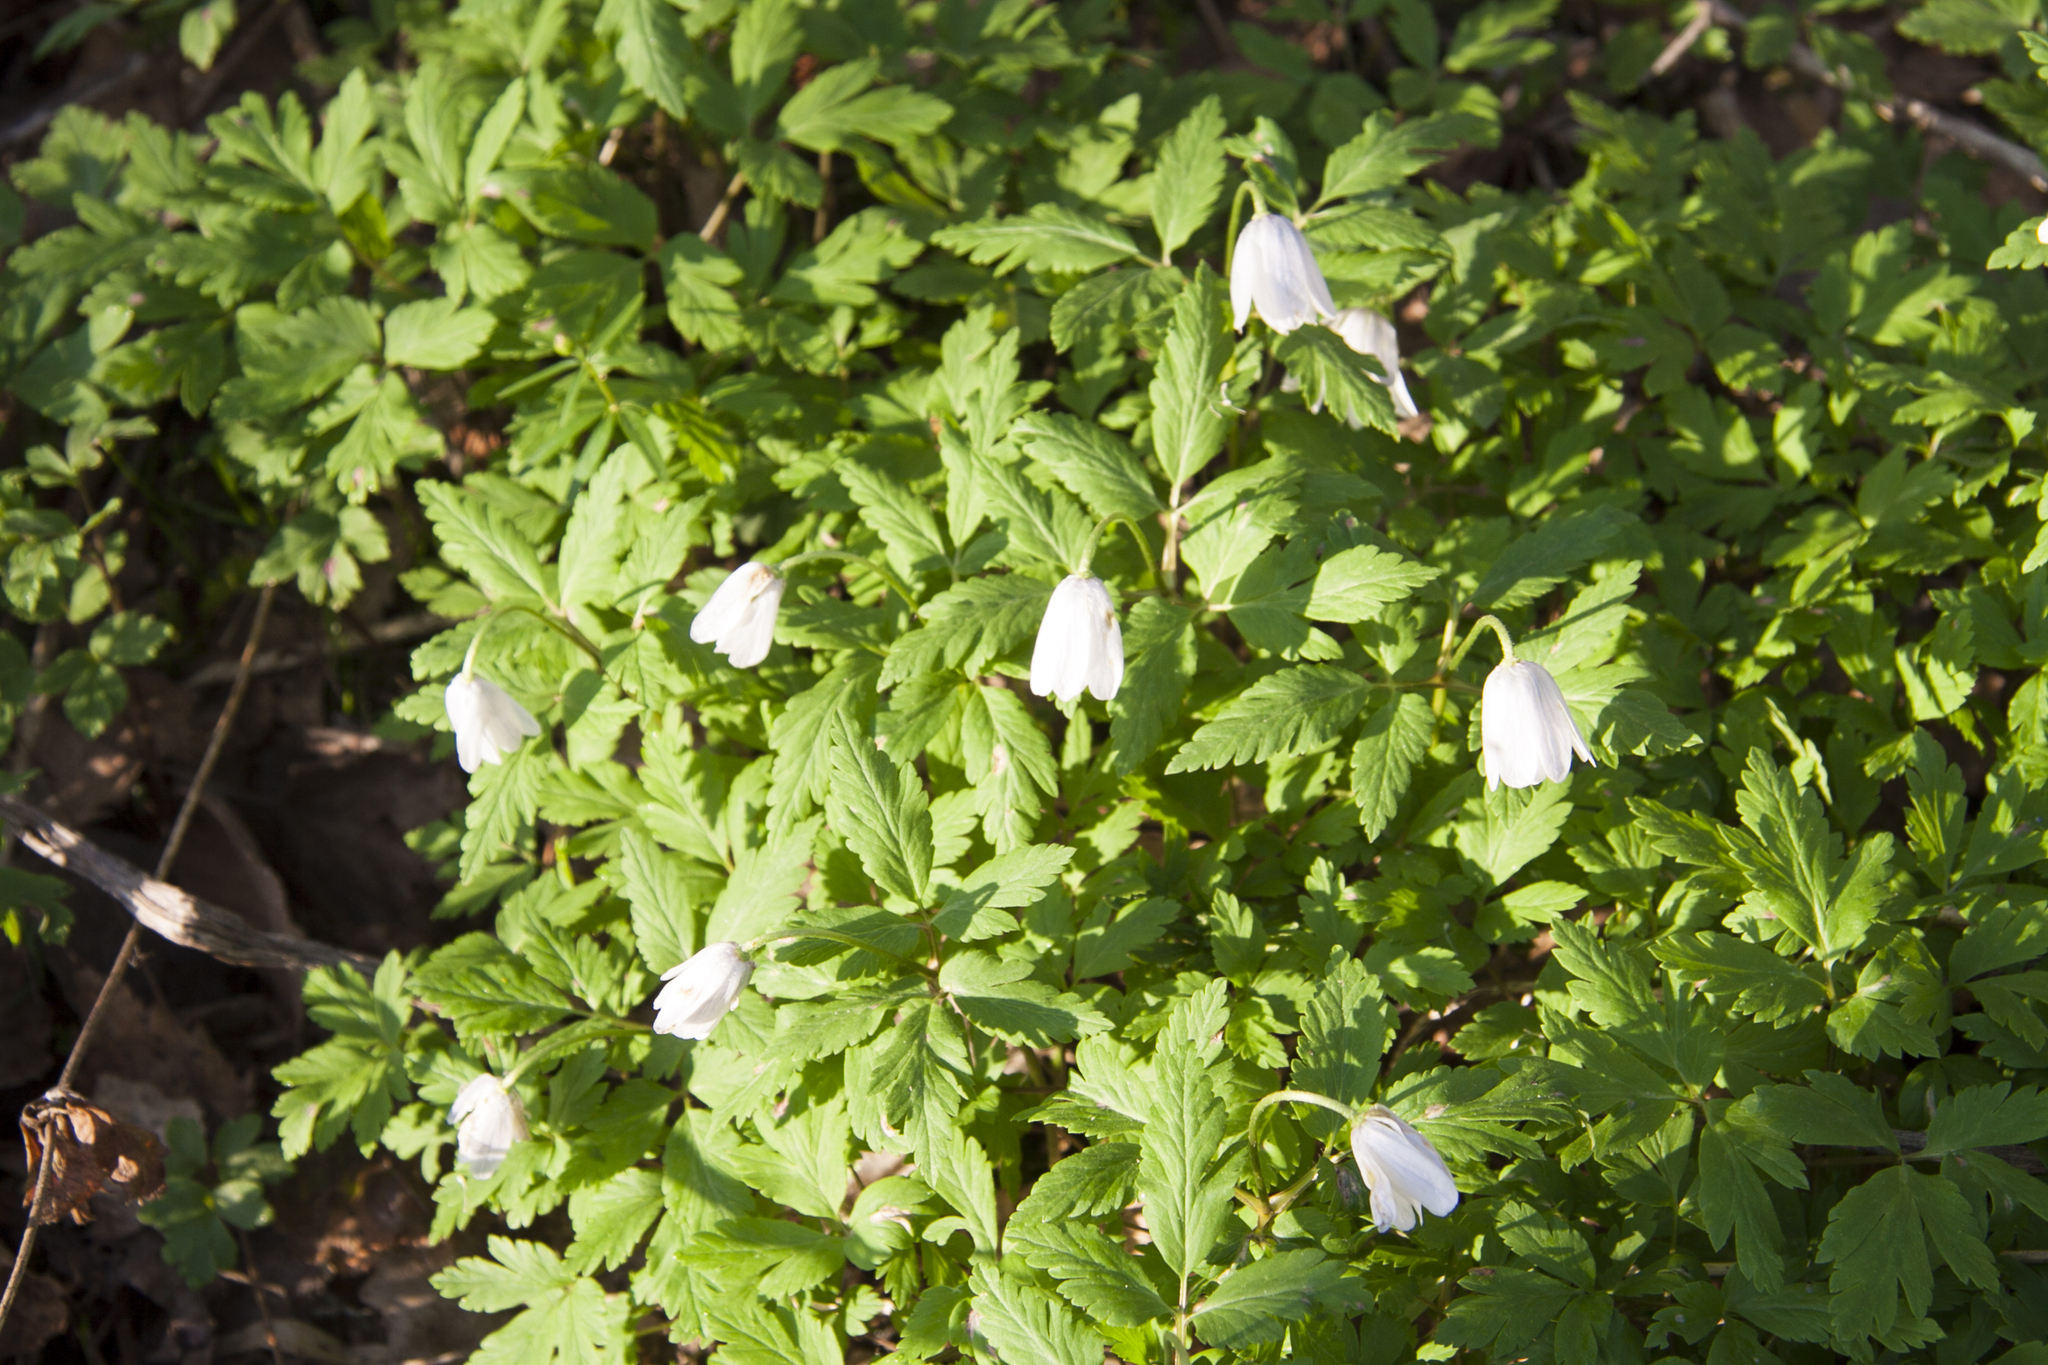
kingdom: Plantae
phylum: Tracheophyta
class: Magnoliopsida
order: Ranunculales
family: Ranunculaceae
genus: Anemone
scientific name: Anemone altaica
